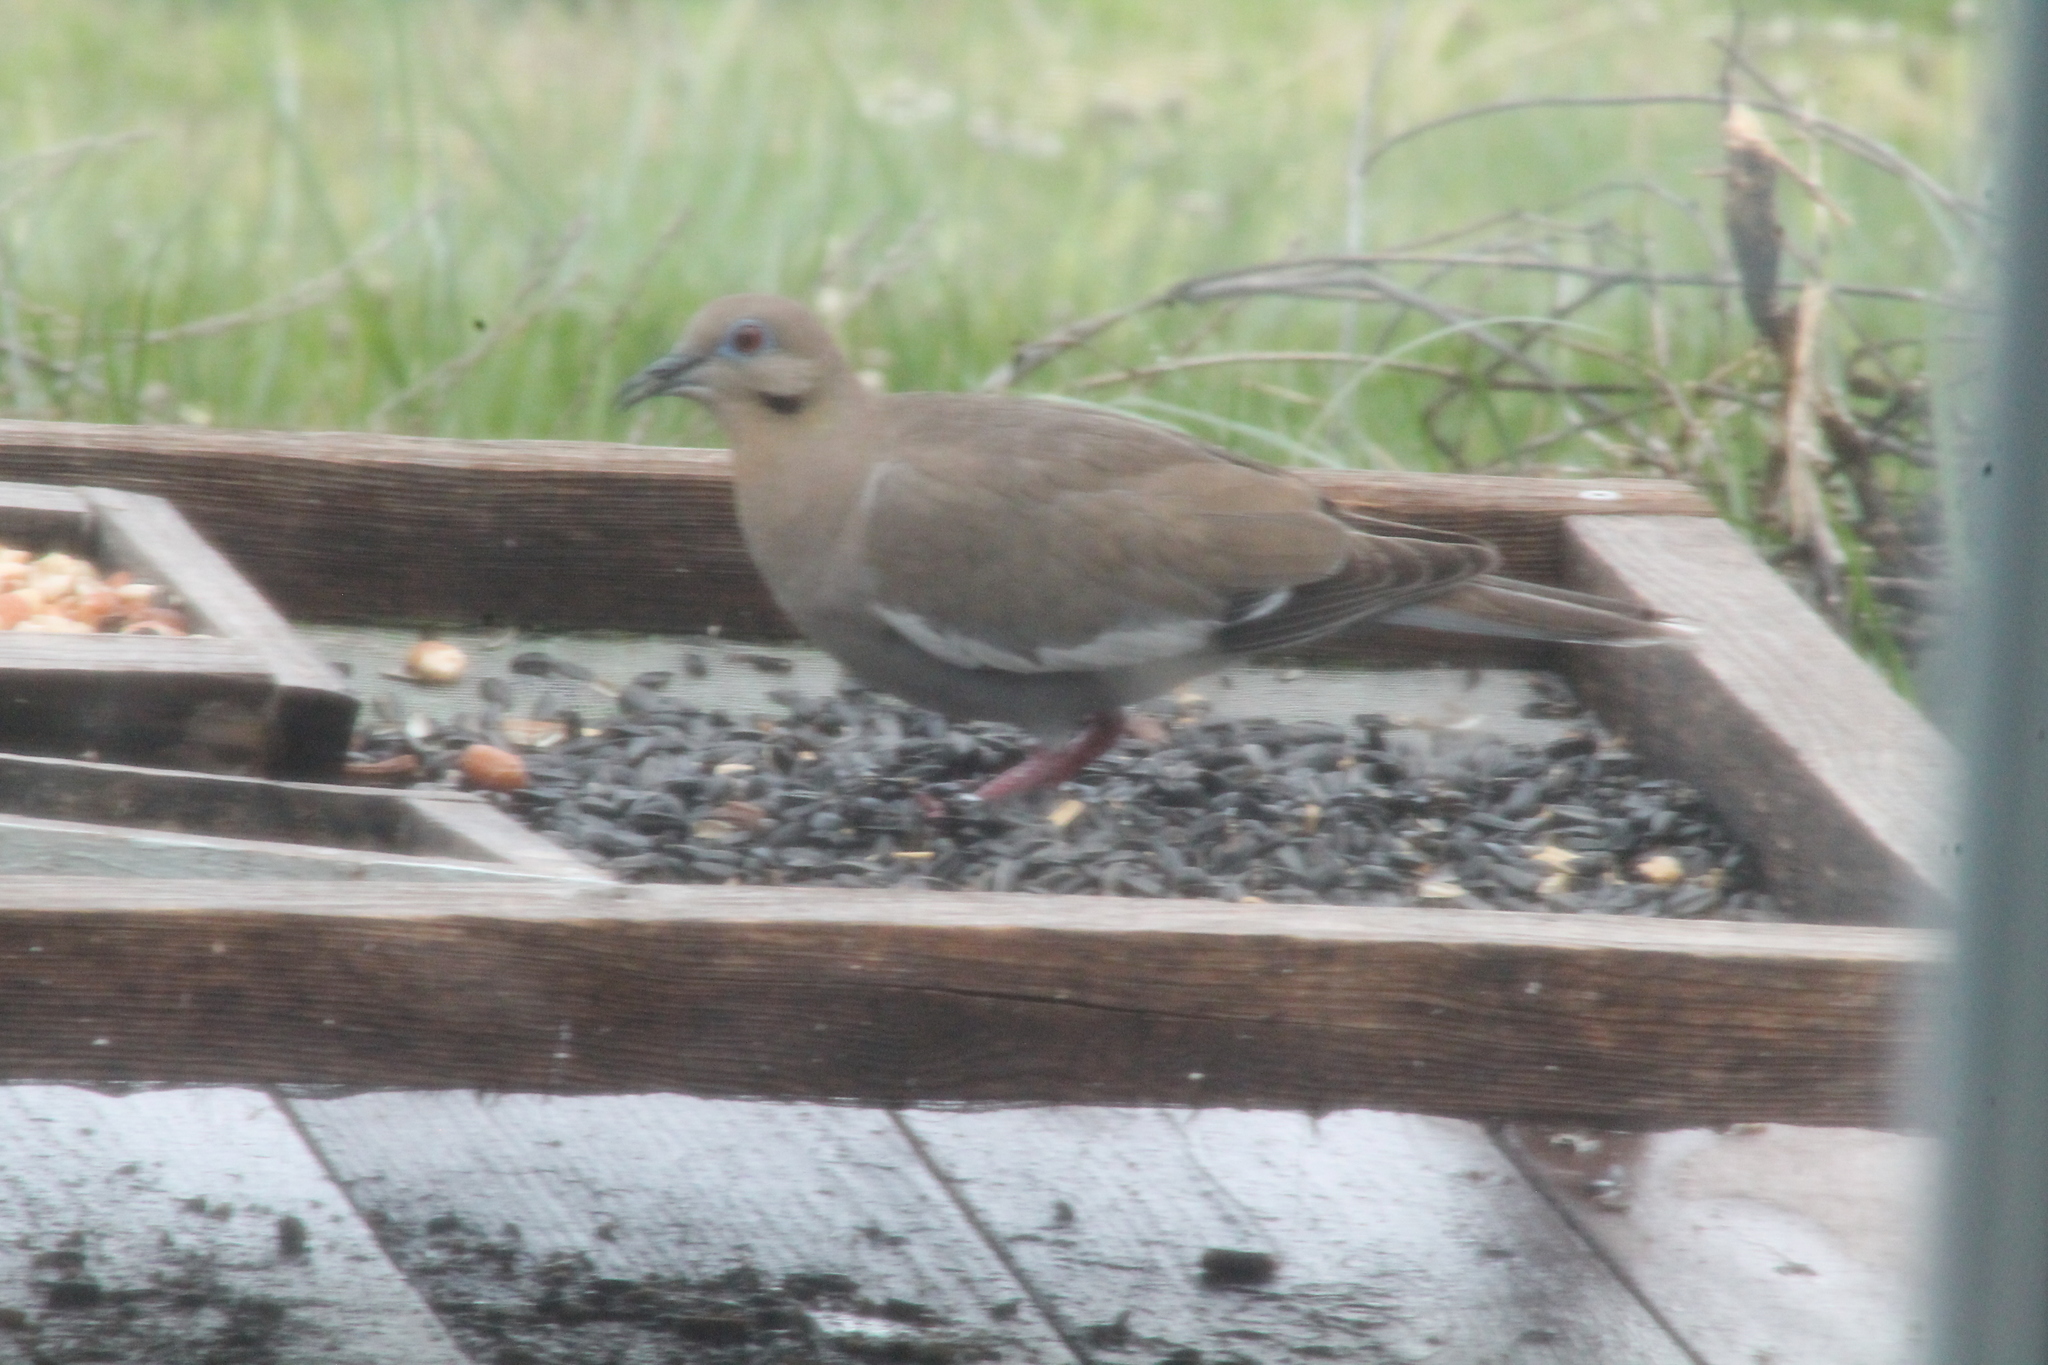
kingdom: Animalia
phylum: Chordata
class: Aves
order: Columbiformes
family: Columbidae
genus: Zenaida
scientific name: Zenaida asiatica
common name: White-winged dove
